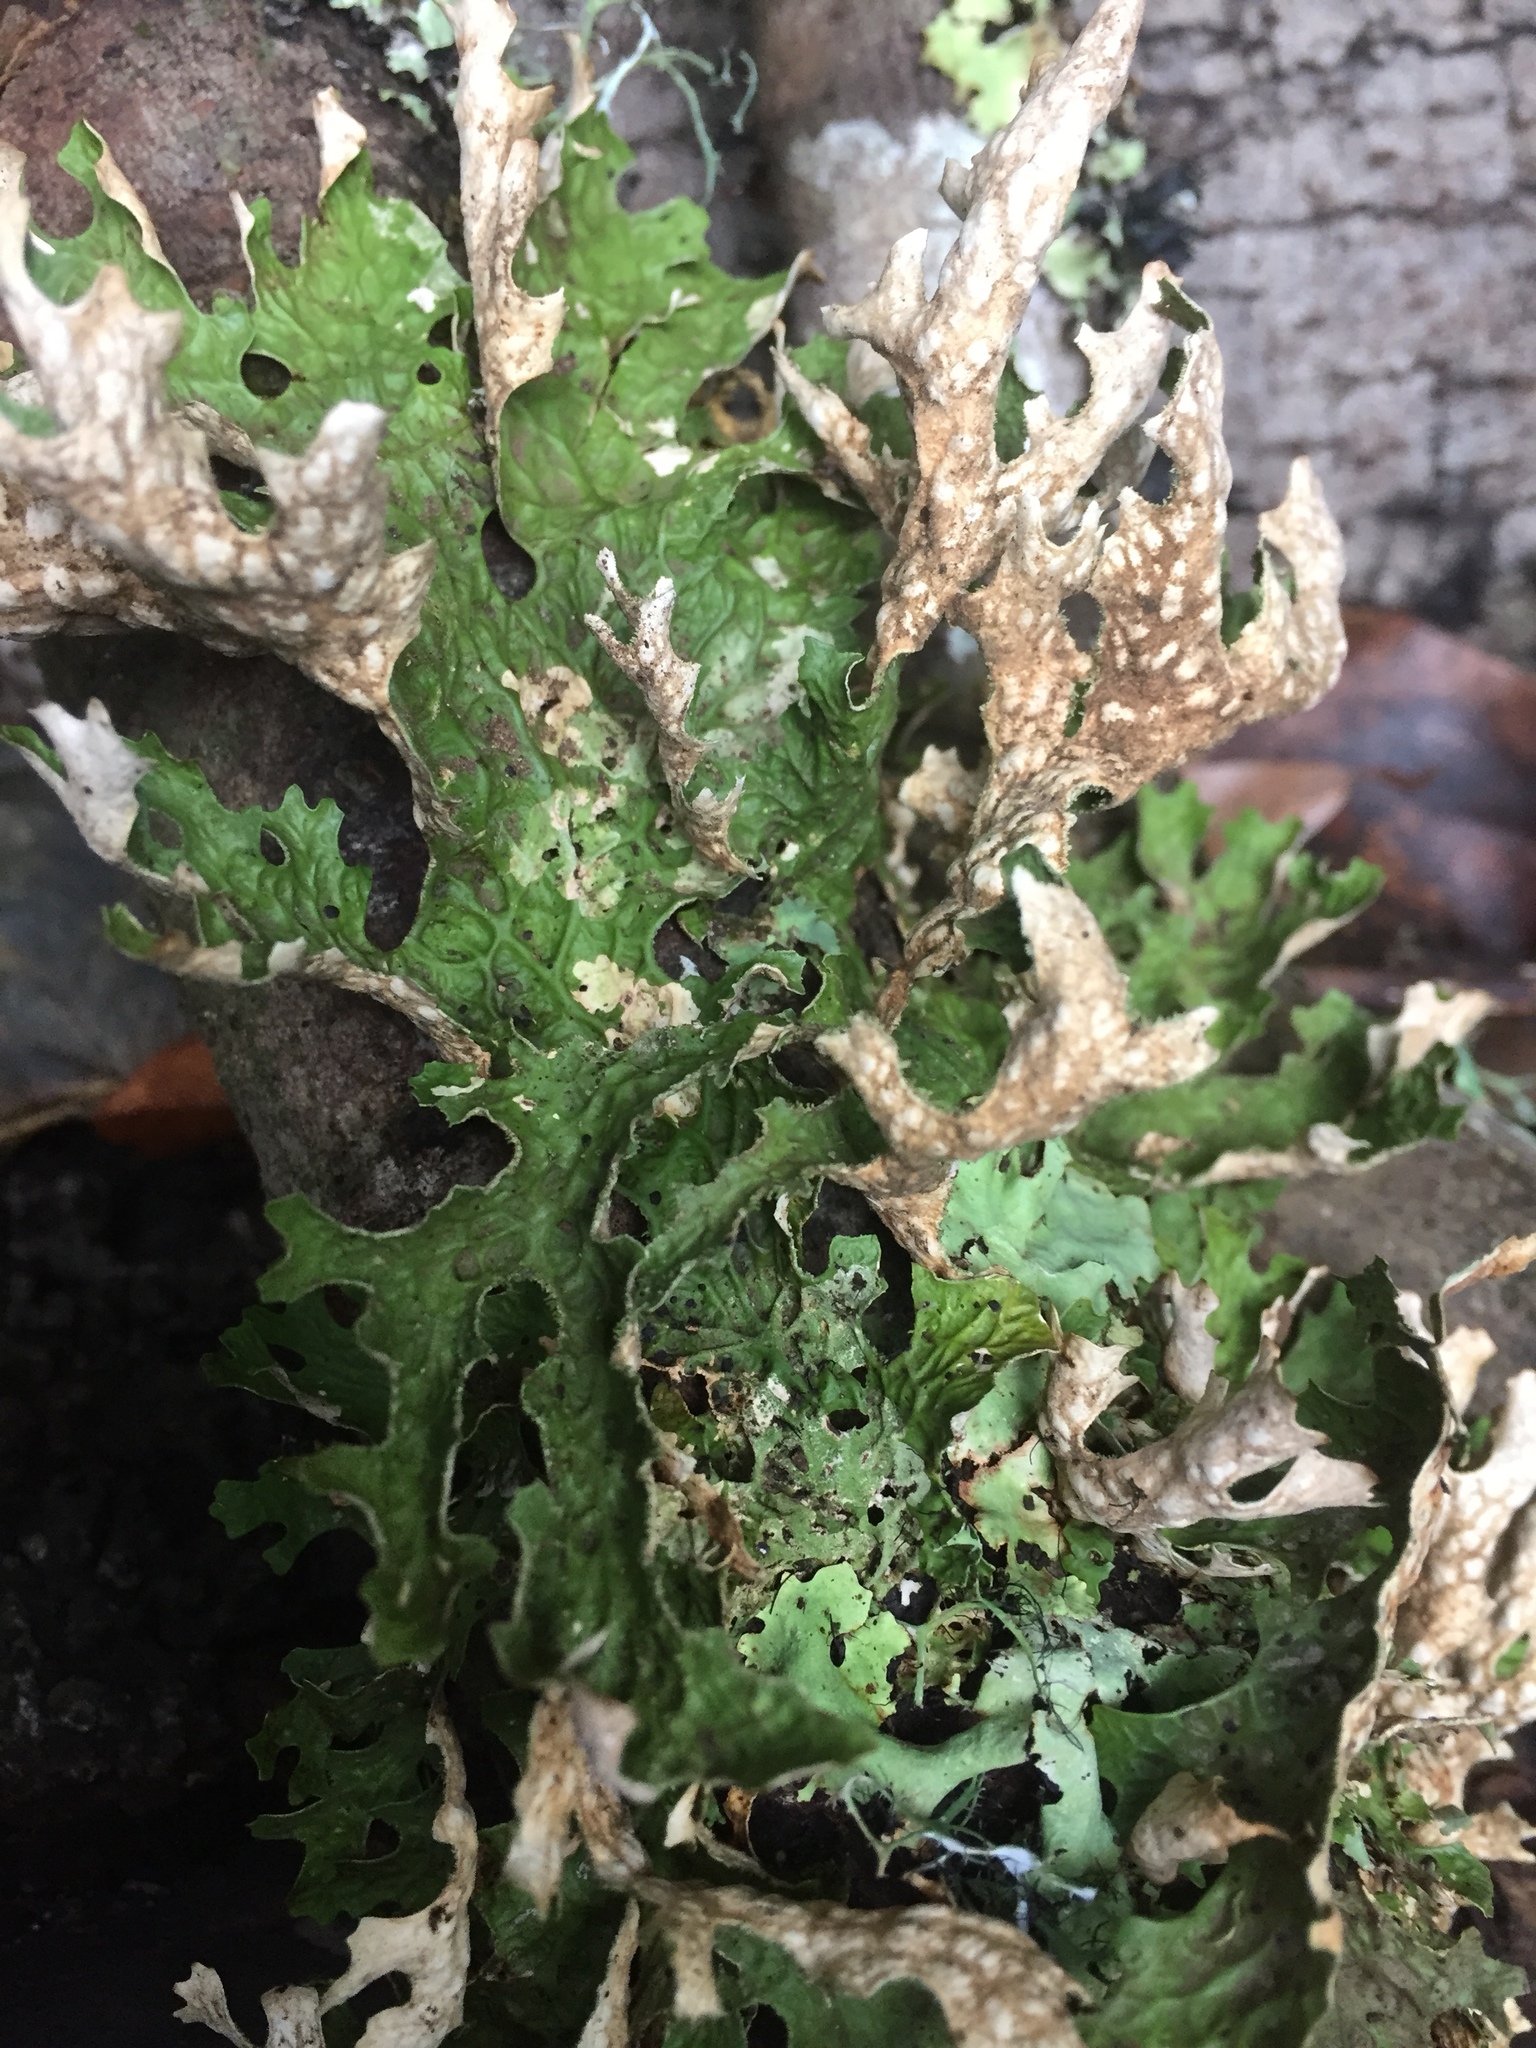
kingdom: Fungi
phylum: Ascomycota
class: Lecanoromycetes
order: Peltigerales
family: Lobariaceae
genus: Lobaria
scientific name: Lobaria pulmonaria
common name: Lungwort
